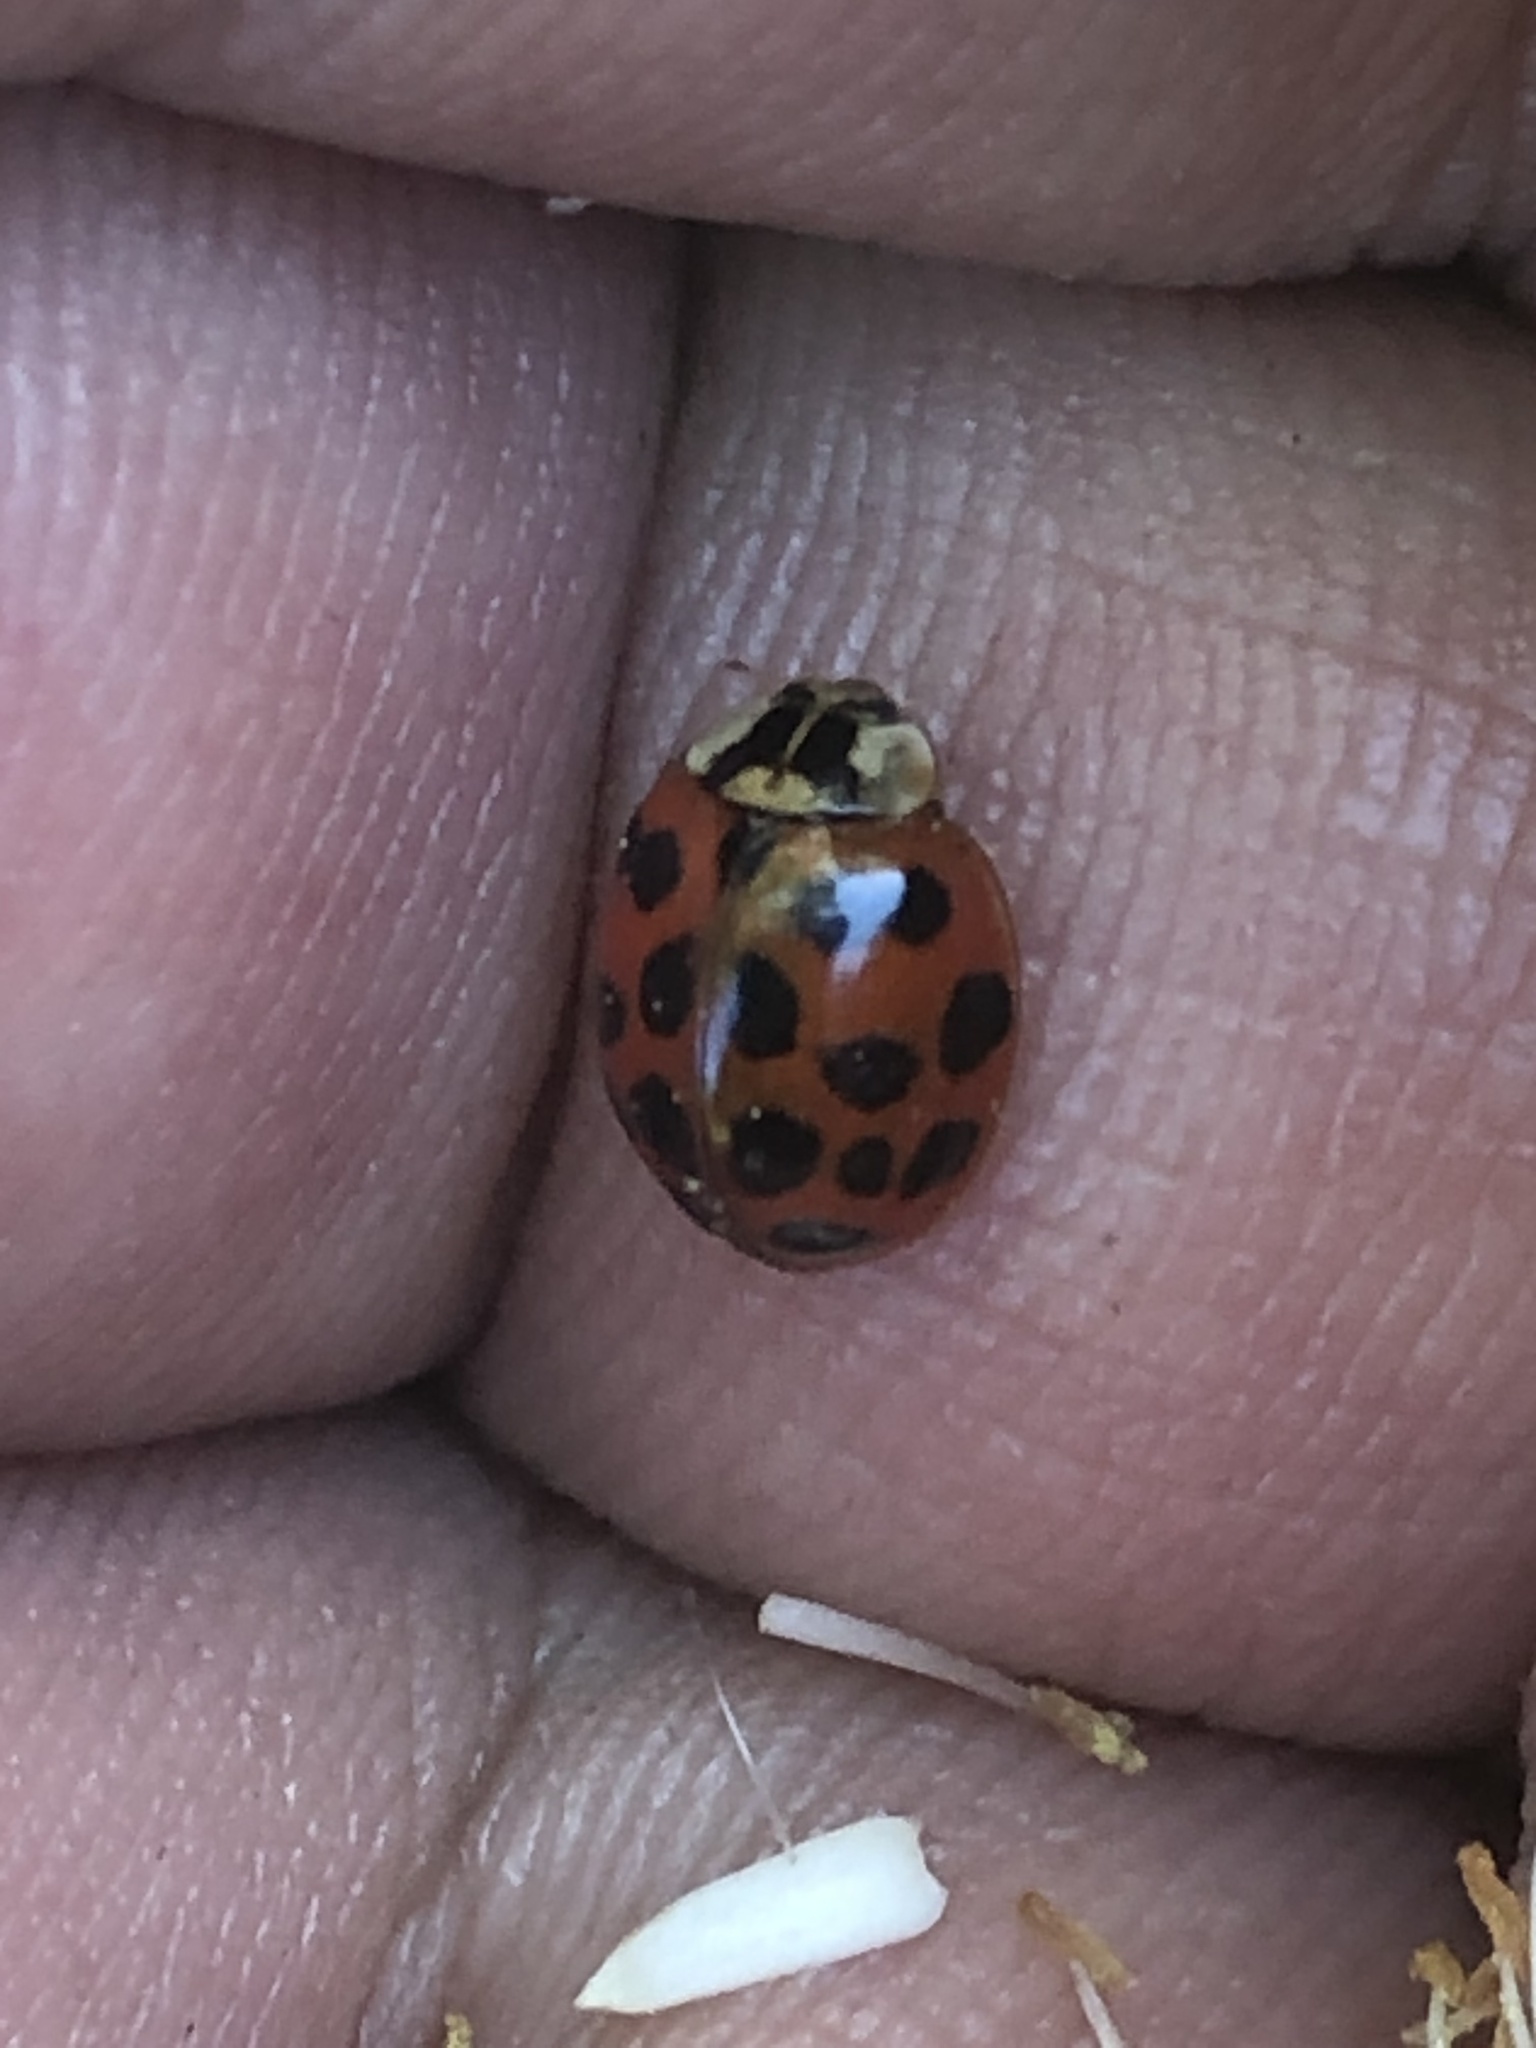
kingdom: Animalia
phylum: Arthropoda
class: Insecta
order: Coleoptera
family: Coccinellidae
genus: Harmonia
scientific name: Harmonia axyridis
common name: Harlequin ladybird
